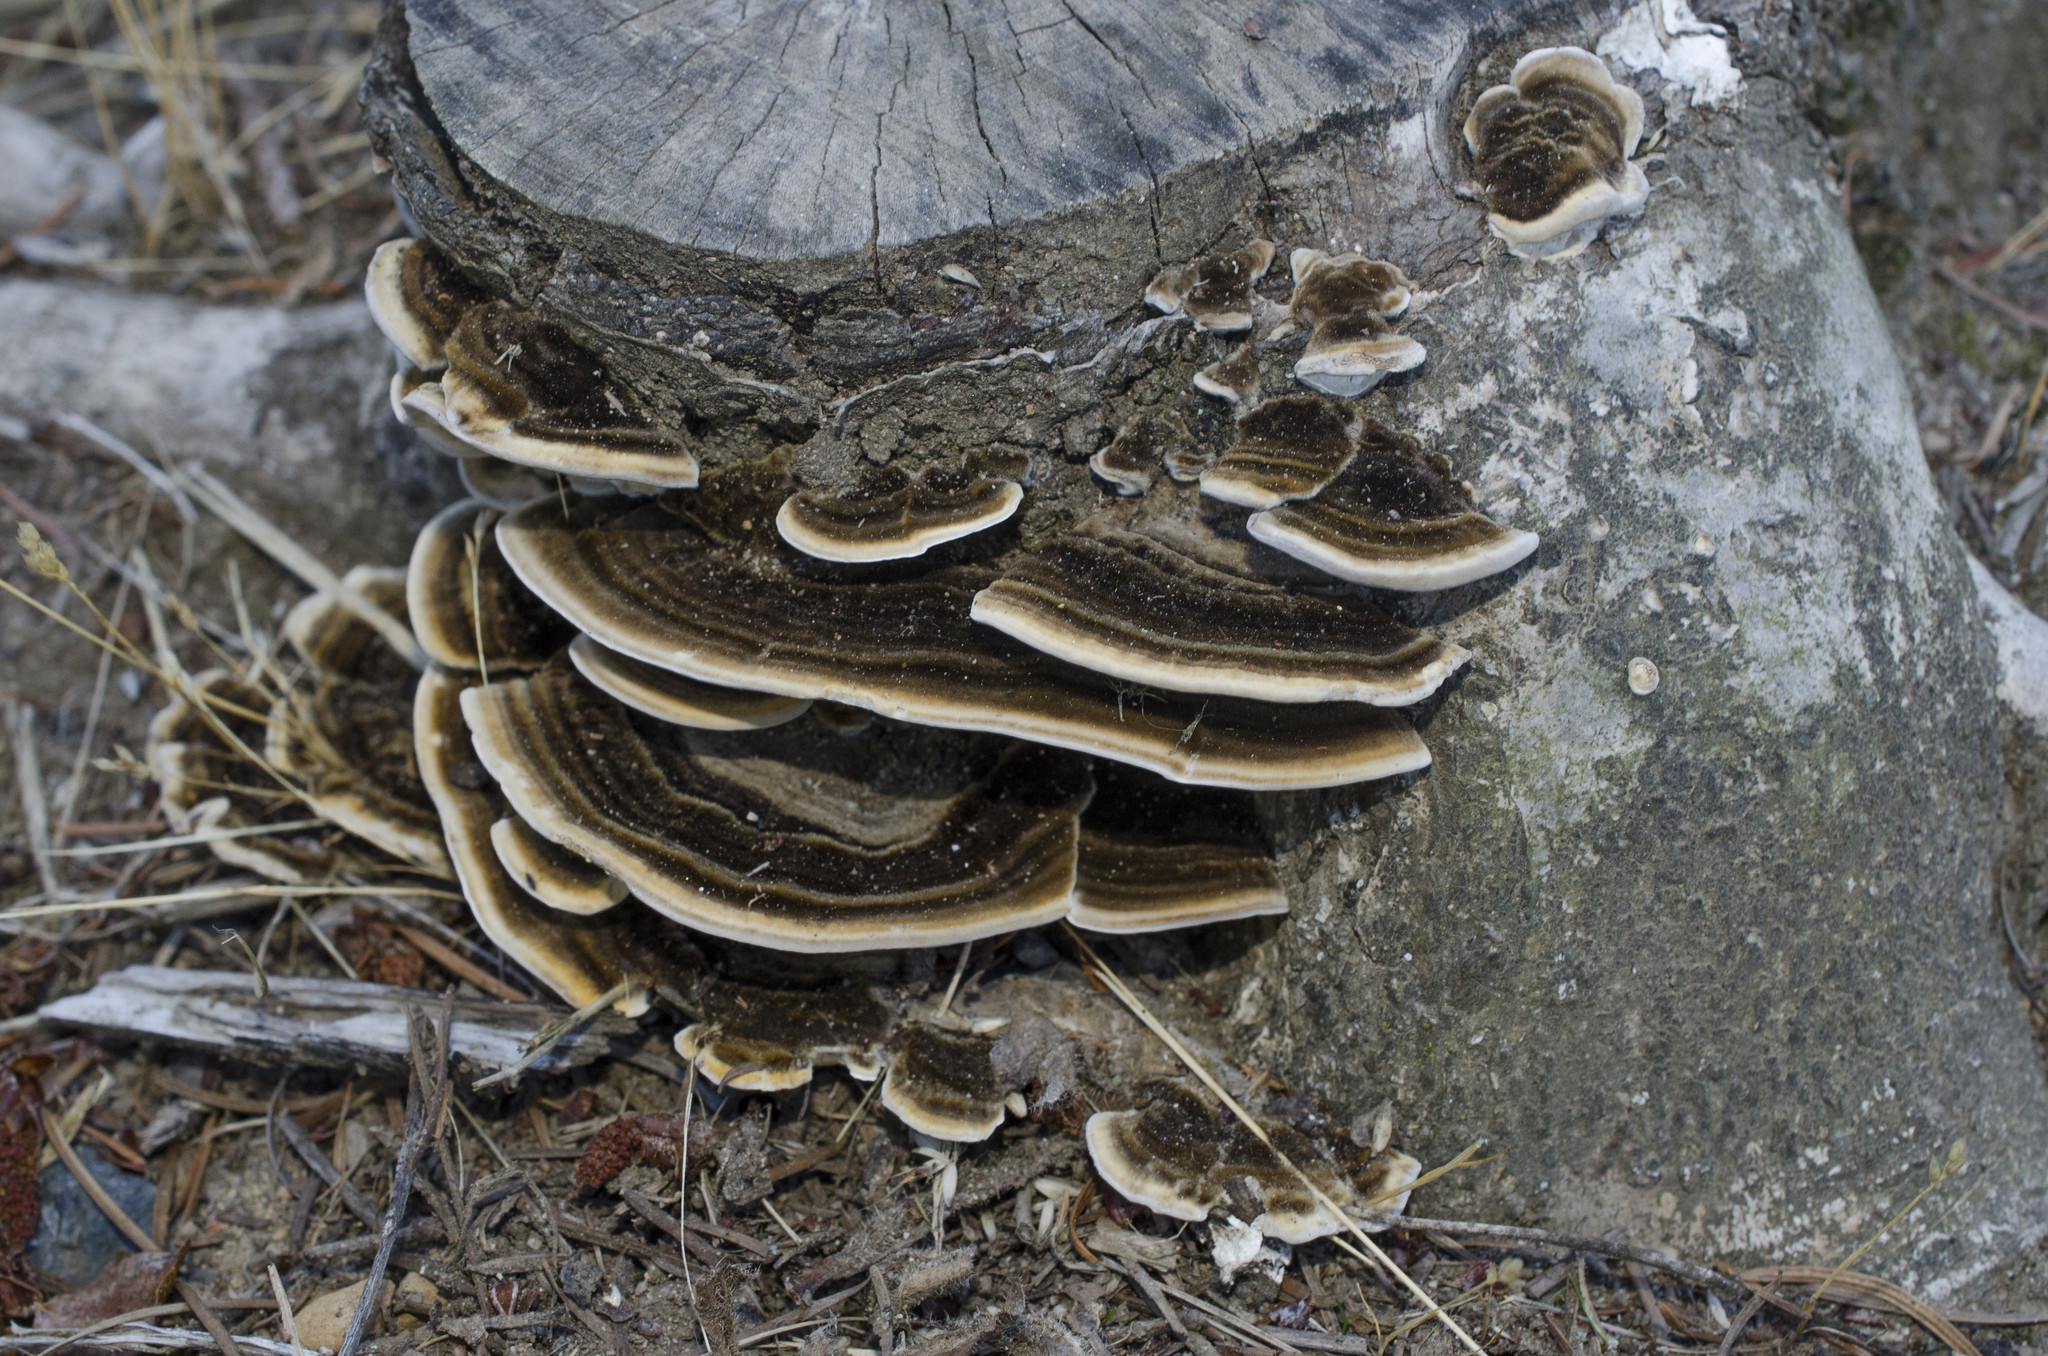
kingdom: Fungi
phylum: Basidiomycota
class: Agaricomycetes
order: Polyporales
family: Polyporaceae
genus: Trametes
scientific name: Trametes versicolor
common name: Turkeytail
